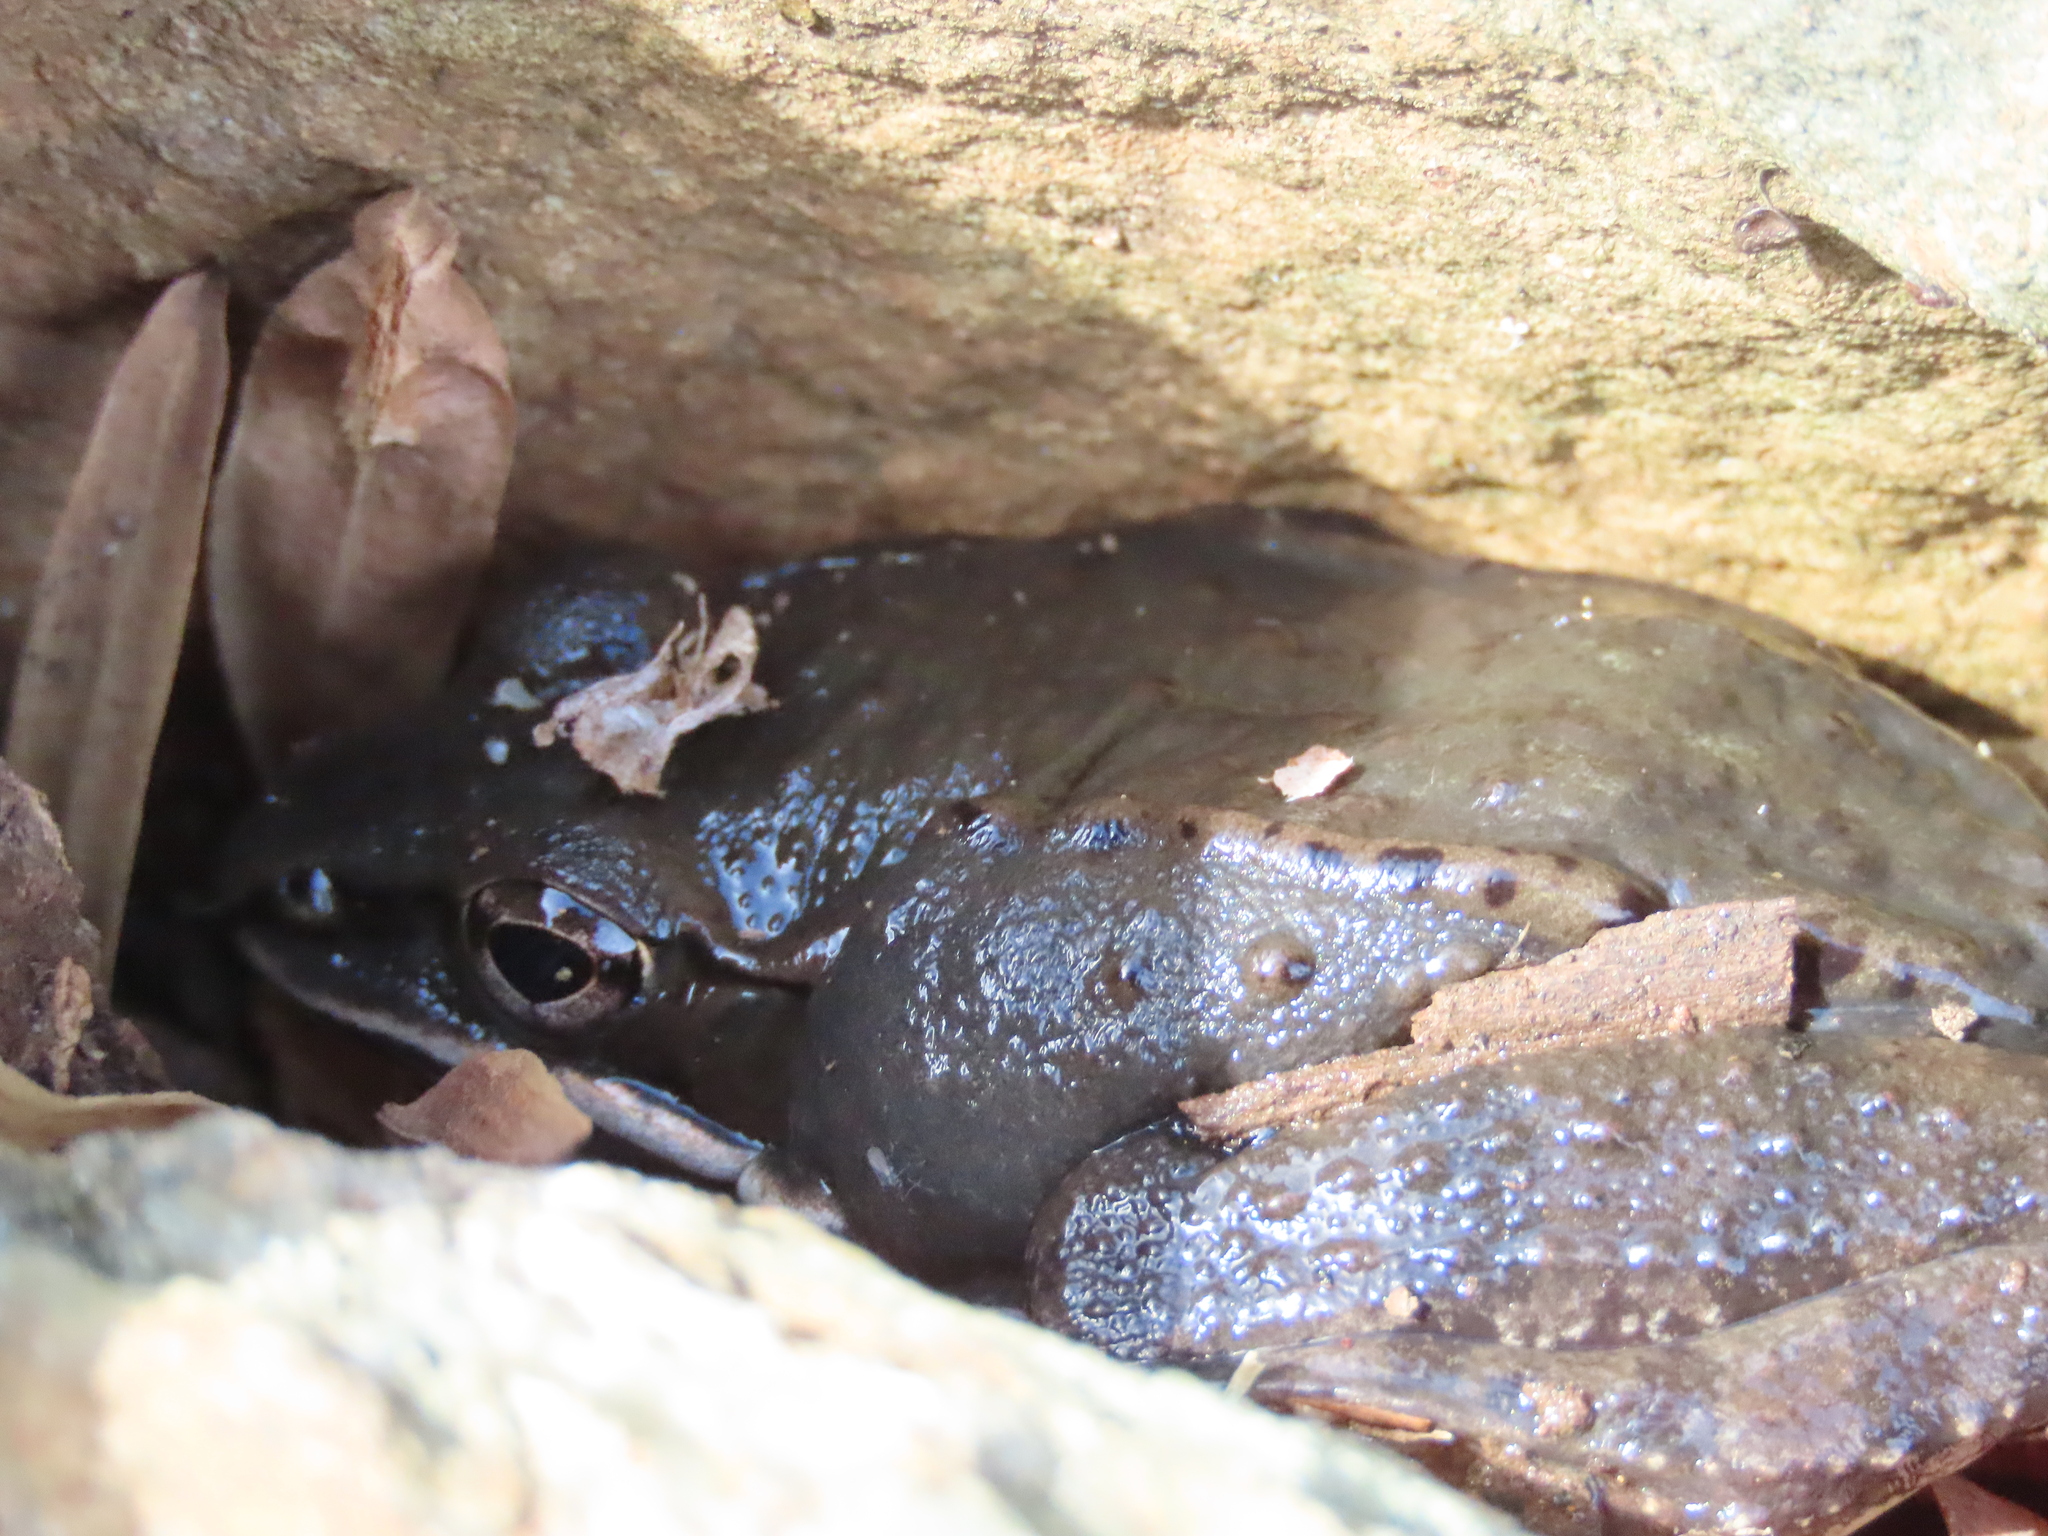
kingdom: Animalia
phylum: Chordata
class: Amphibia
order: Anura
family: Ranidae
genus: Lithobates
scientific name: Lithobates sylvaticus
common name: Wood frog
